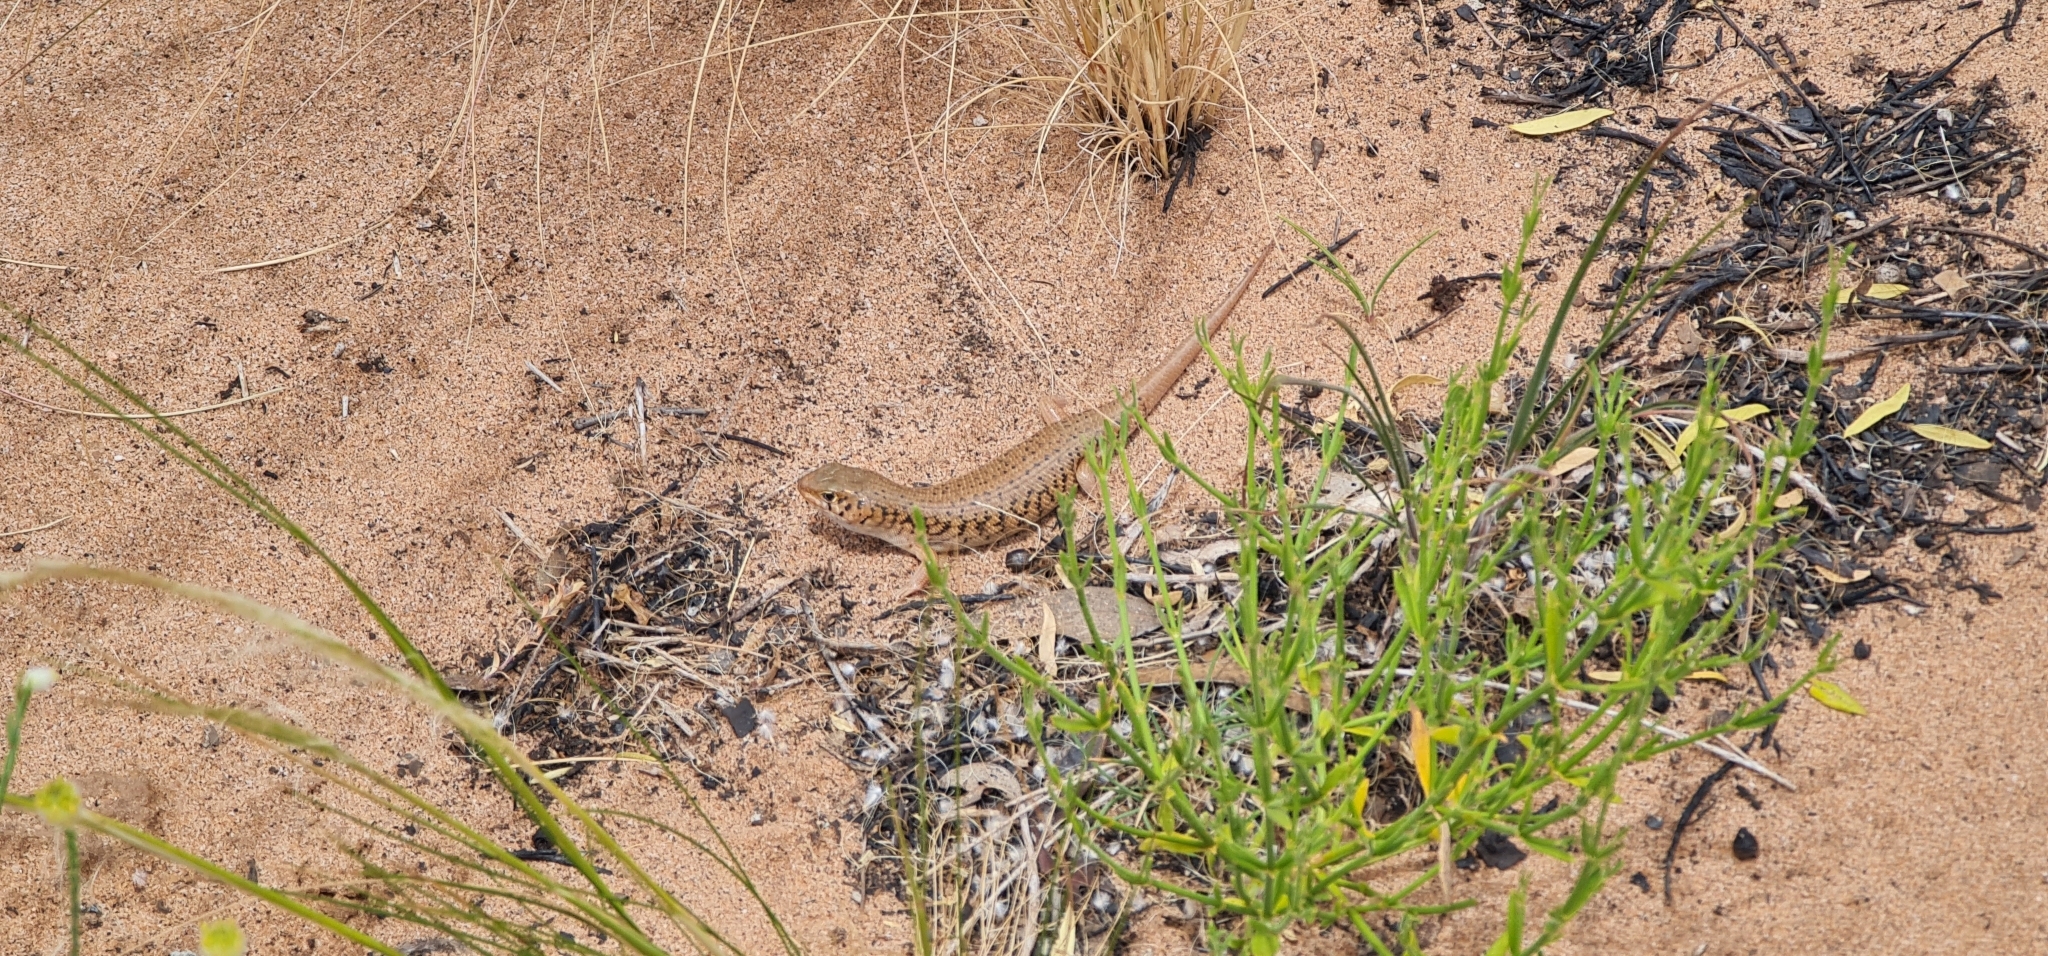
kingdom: Animalia
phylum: Chordata
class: Squamata
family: Scincidae
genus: Liopholis
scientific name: Liopholis inornata
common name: Desert skink
